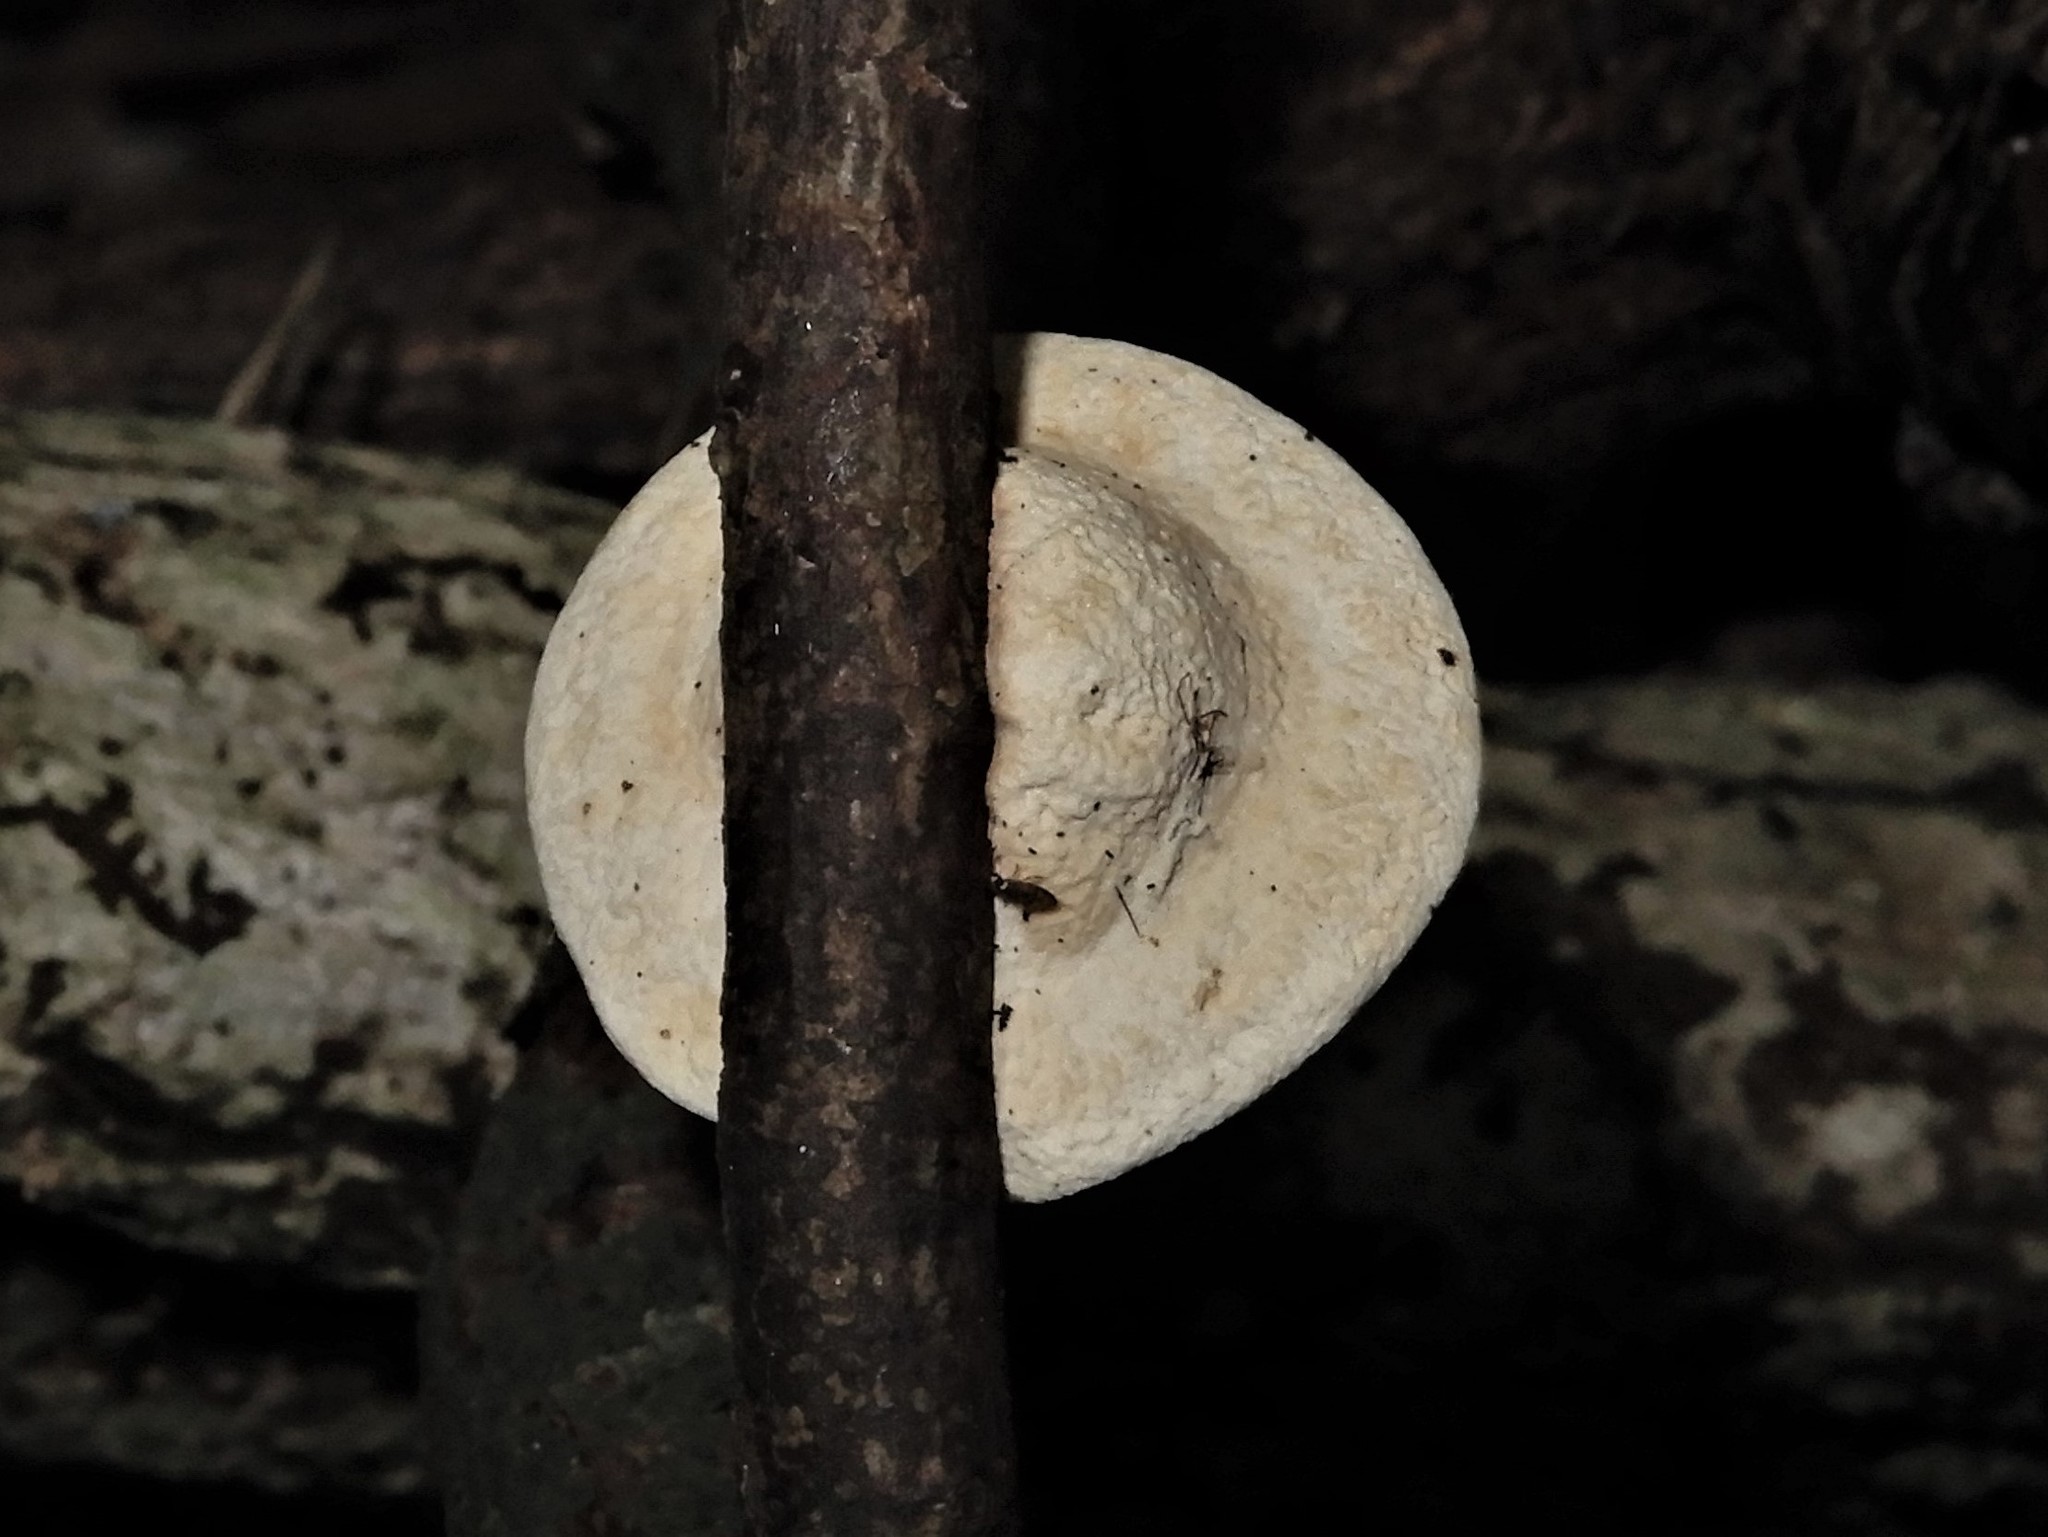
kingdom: Fungi
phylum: Basidiomycota
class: Agaricomycetes
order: Polyporales
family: Polyporaceae
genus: Truncospora
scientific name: Truncospora ochroleuca
